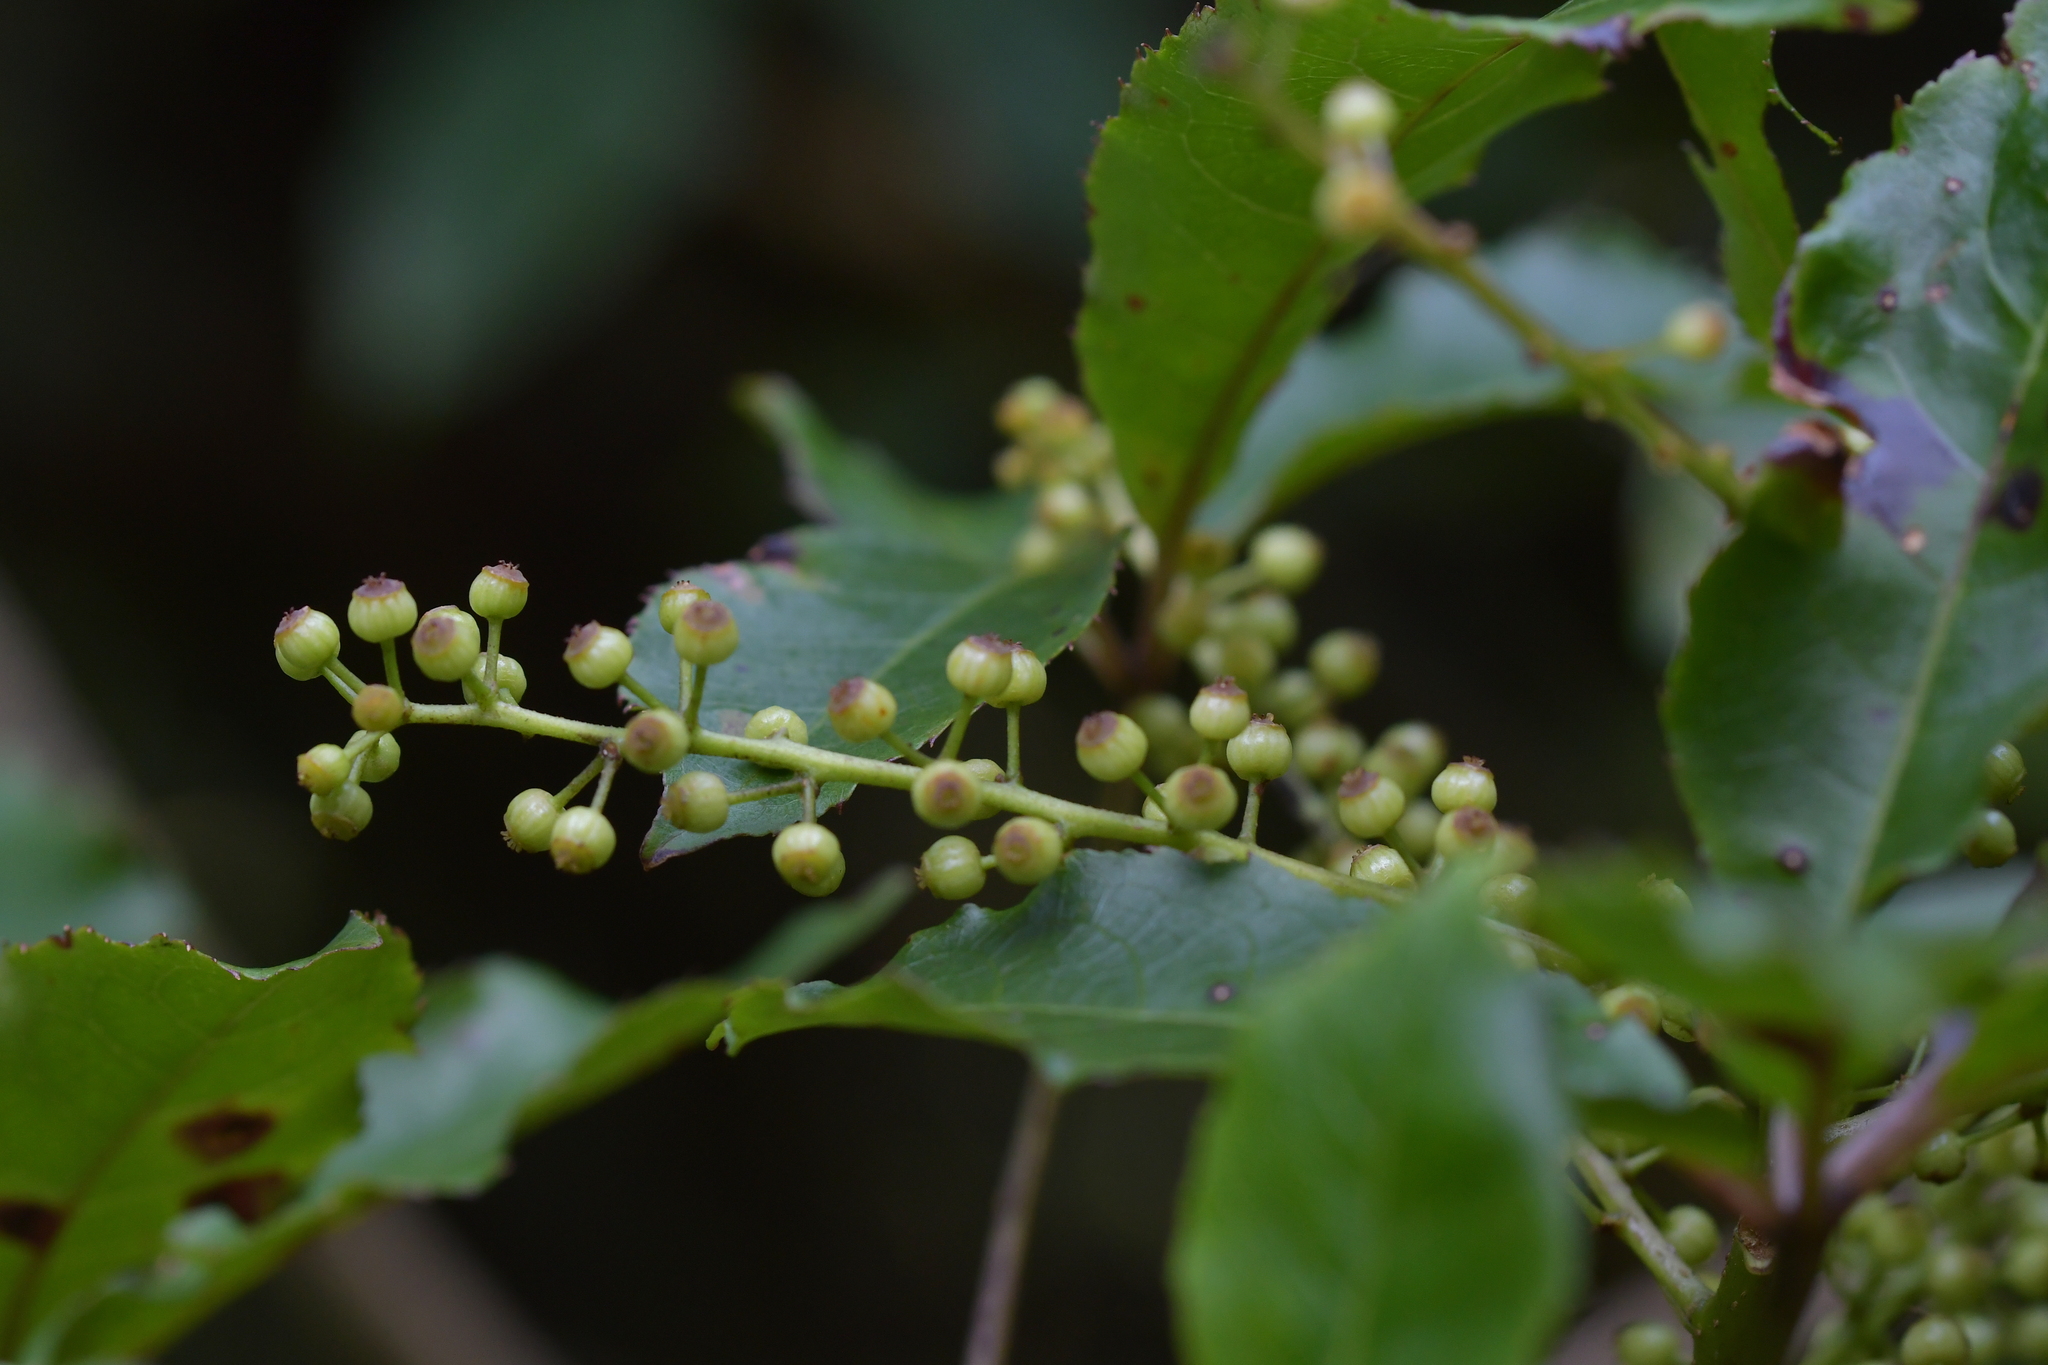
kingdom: Plantae
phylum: Tracheophyta
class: Magnoliopsida
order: Apiales
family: Araliaceae
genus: Schefflera
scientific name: Schefflera digitata
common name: Pate
